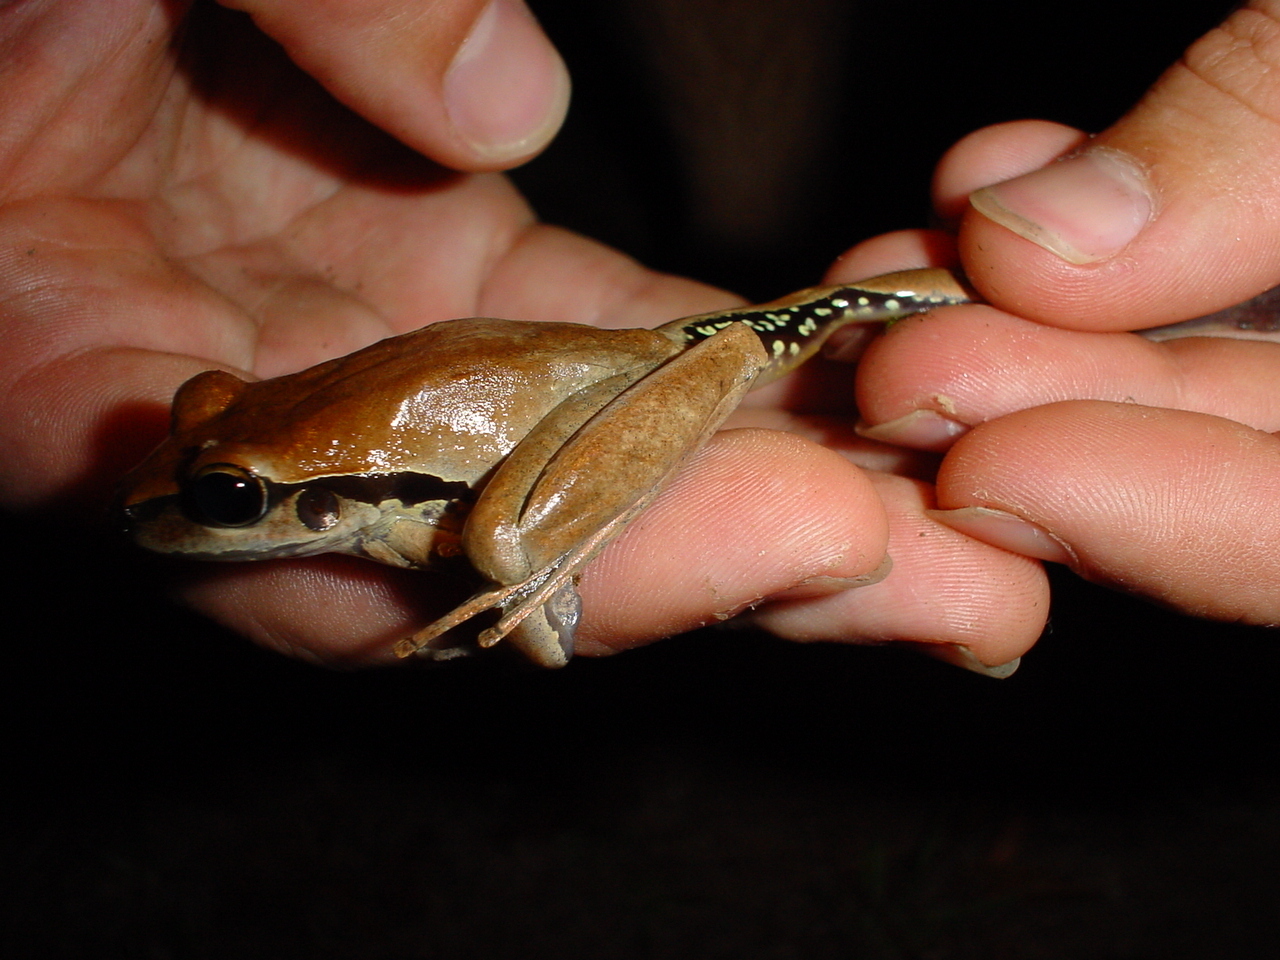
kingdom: Animalia
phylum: Chordata
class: Amphibia
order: Anura
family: Pelodryadidae
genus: Ranoidea
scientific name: Ranoidea wilcoxii
